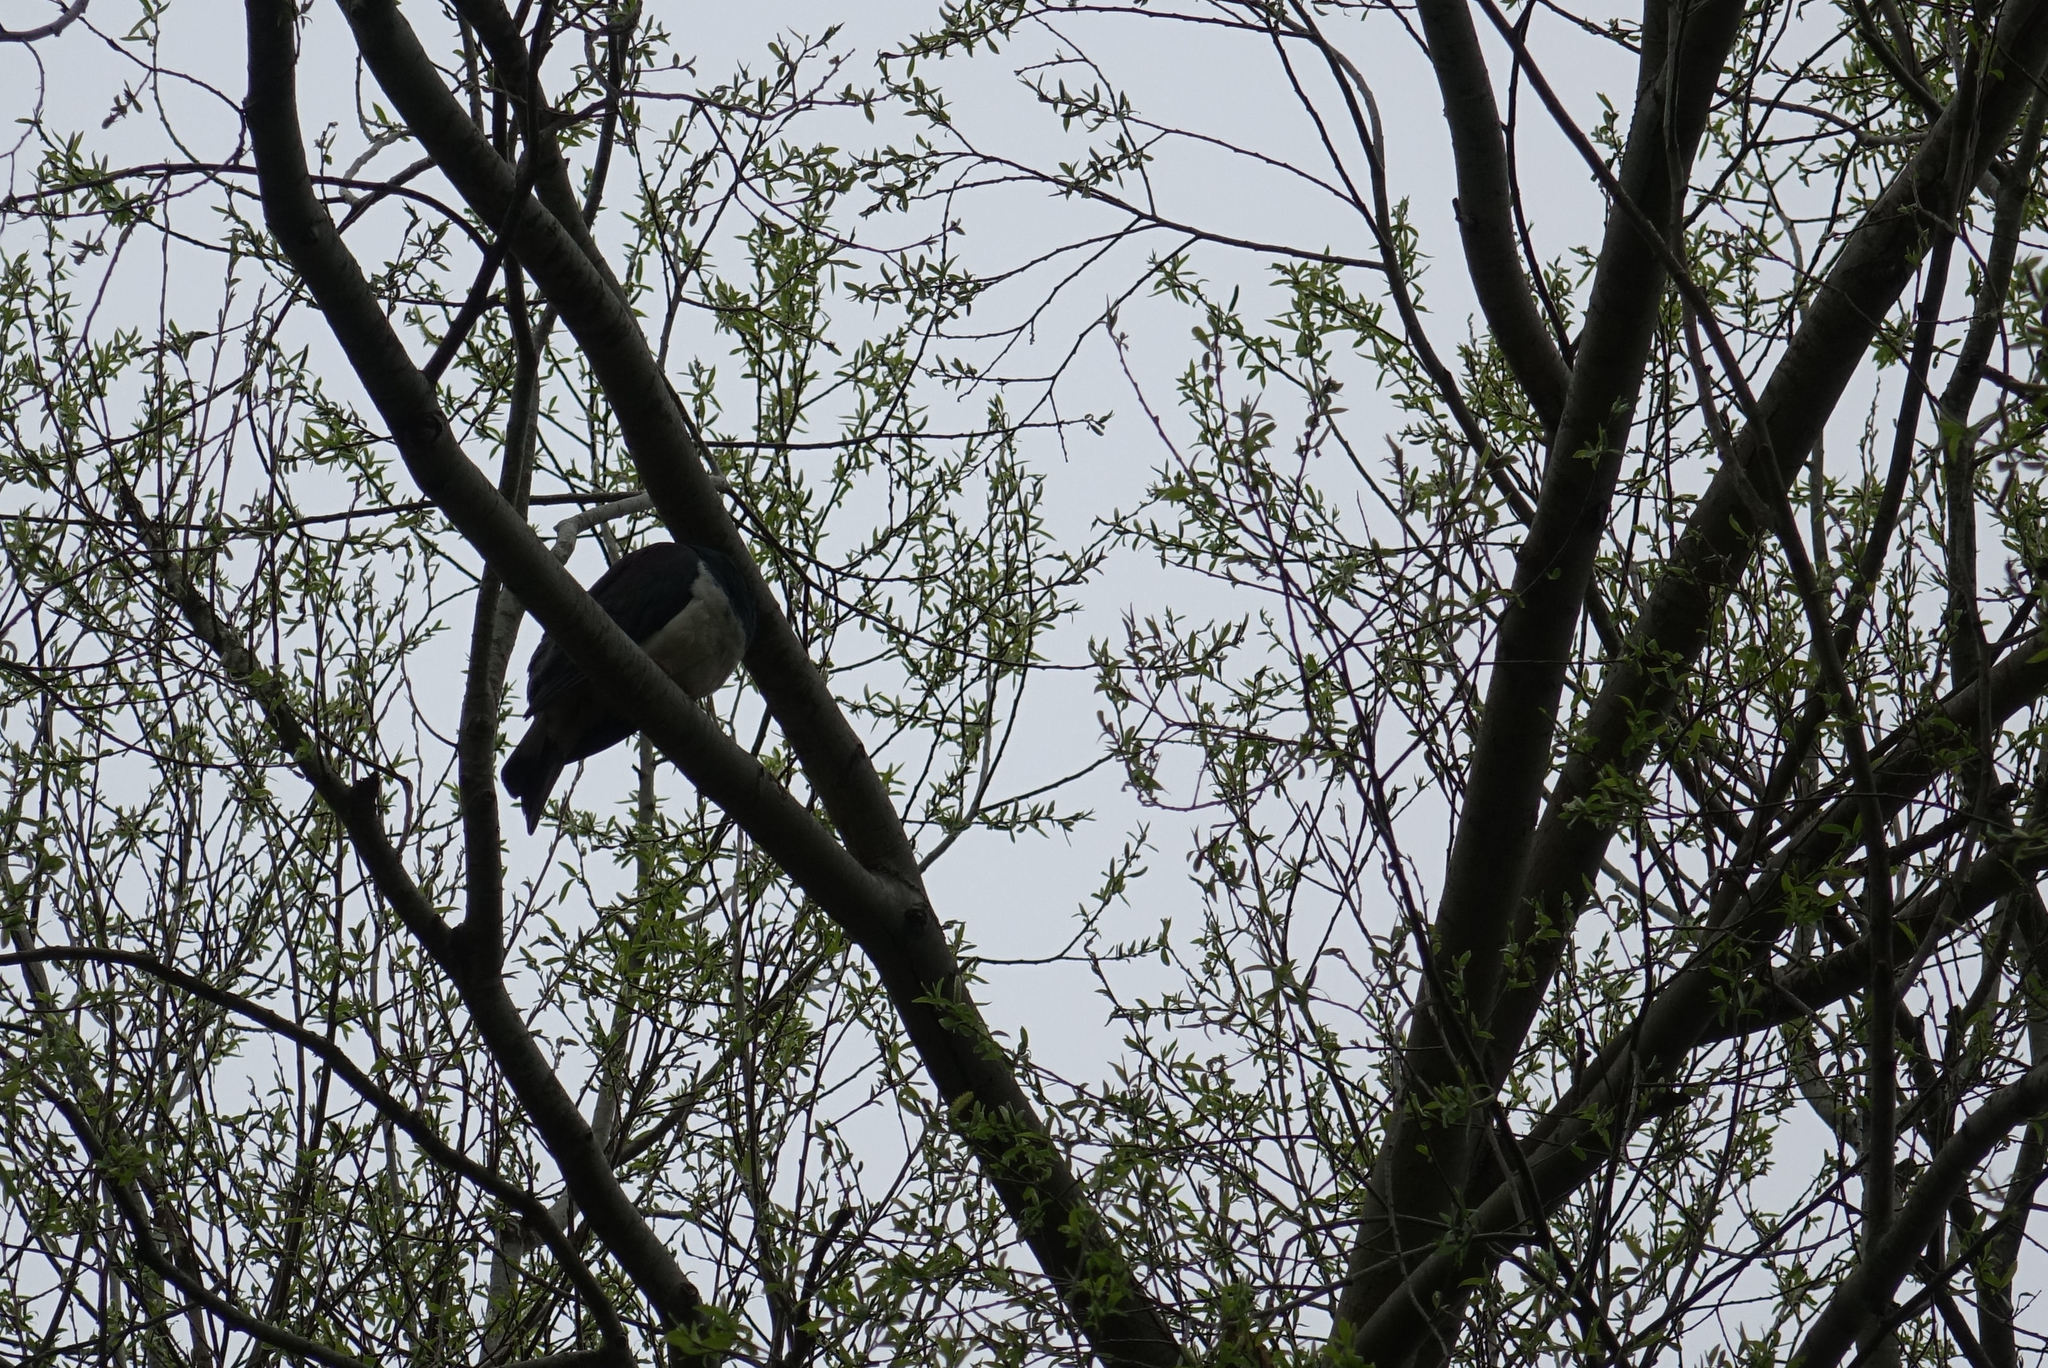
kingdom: Animalia
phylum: Chordata
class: Aves
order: Columbiformes
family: Columbidae
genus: Hemiphaga
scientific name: Hemiphaga novaeseelandiae
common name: New zealand pigeon
